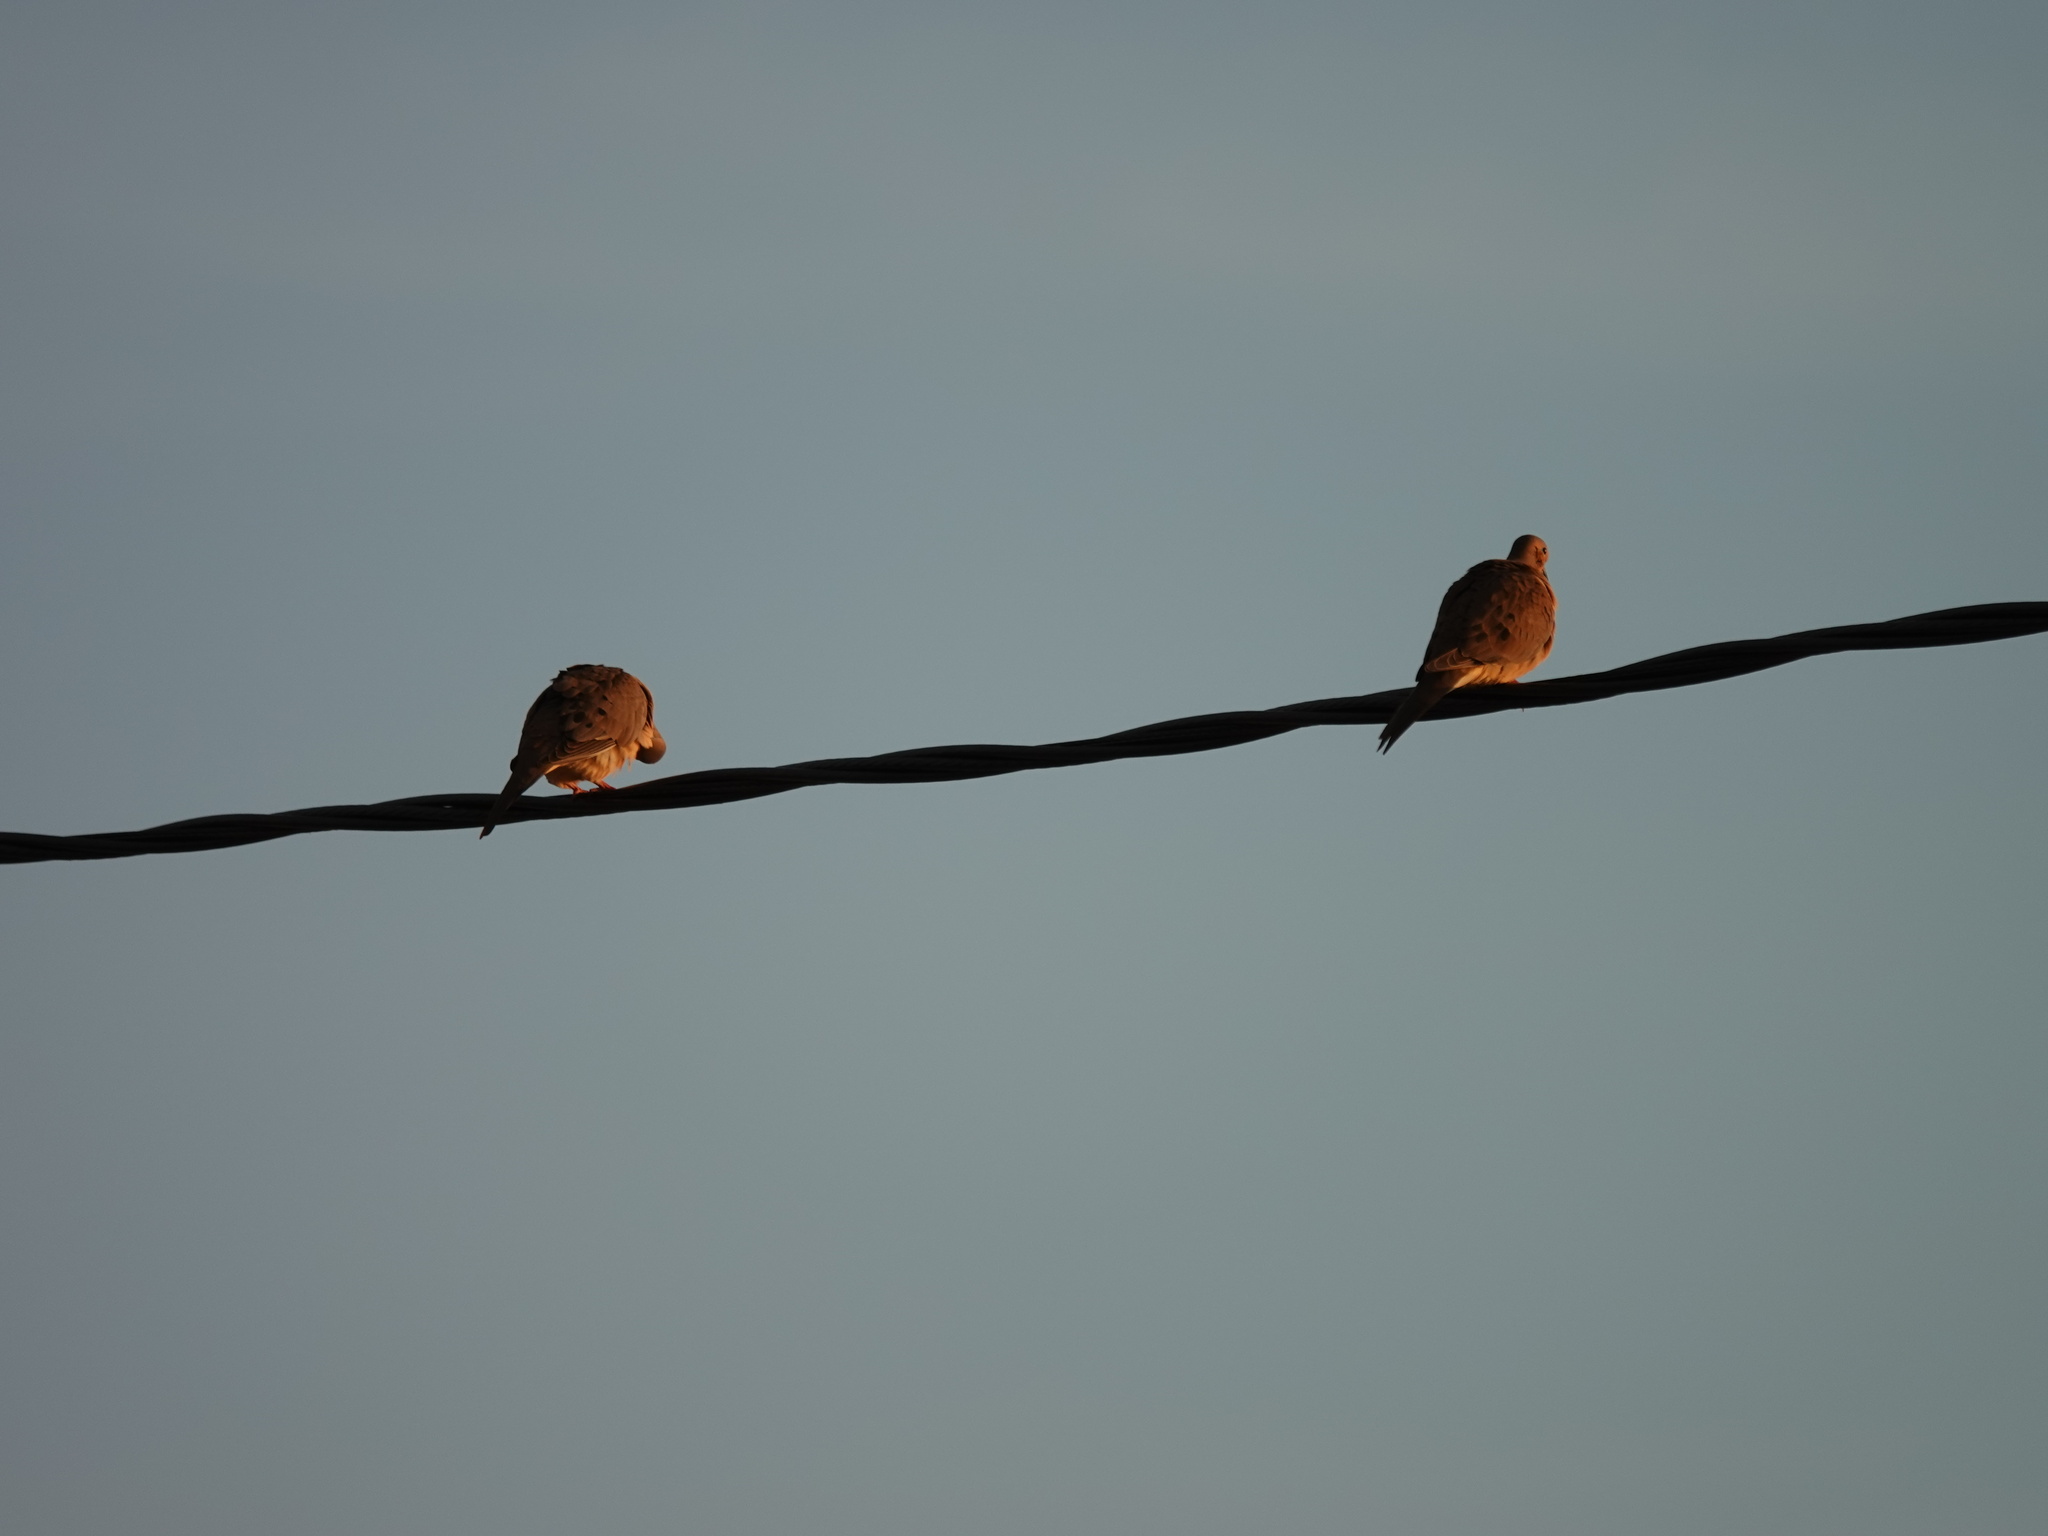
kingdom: Animalia
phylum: Chordata
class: Aves
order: Columbiformes
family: Columbidae
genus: Zenaida
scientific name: Zenaida macroura
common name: Mourning dove
